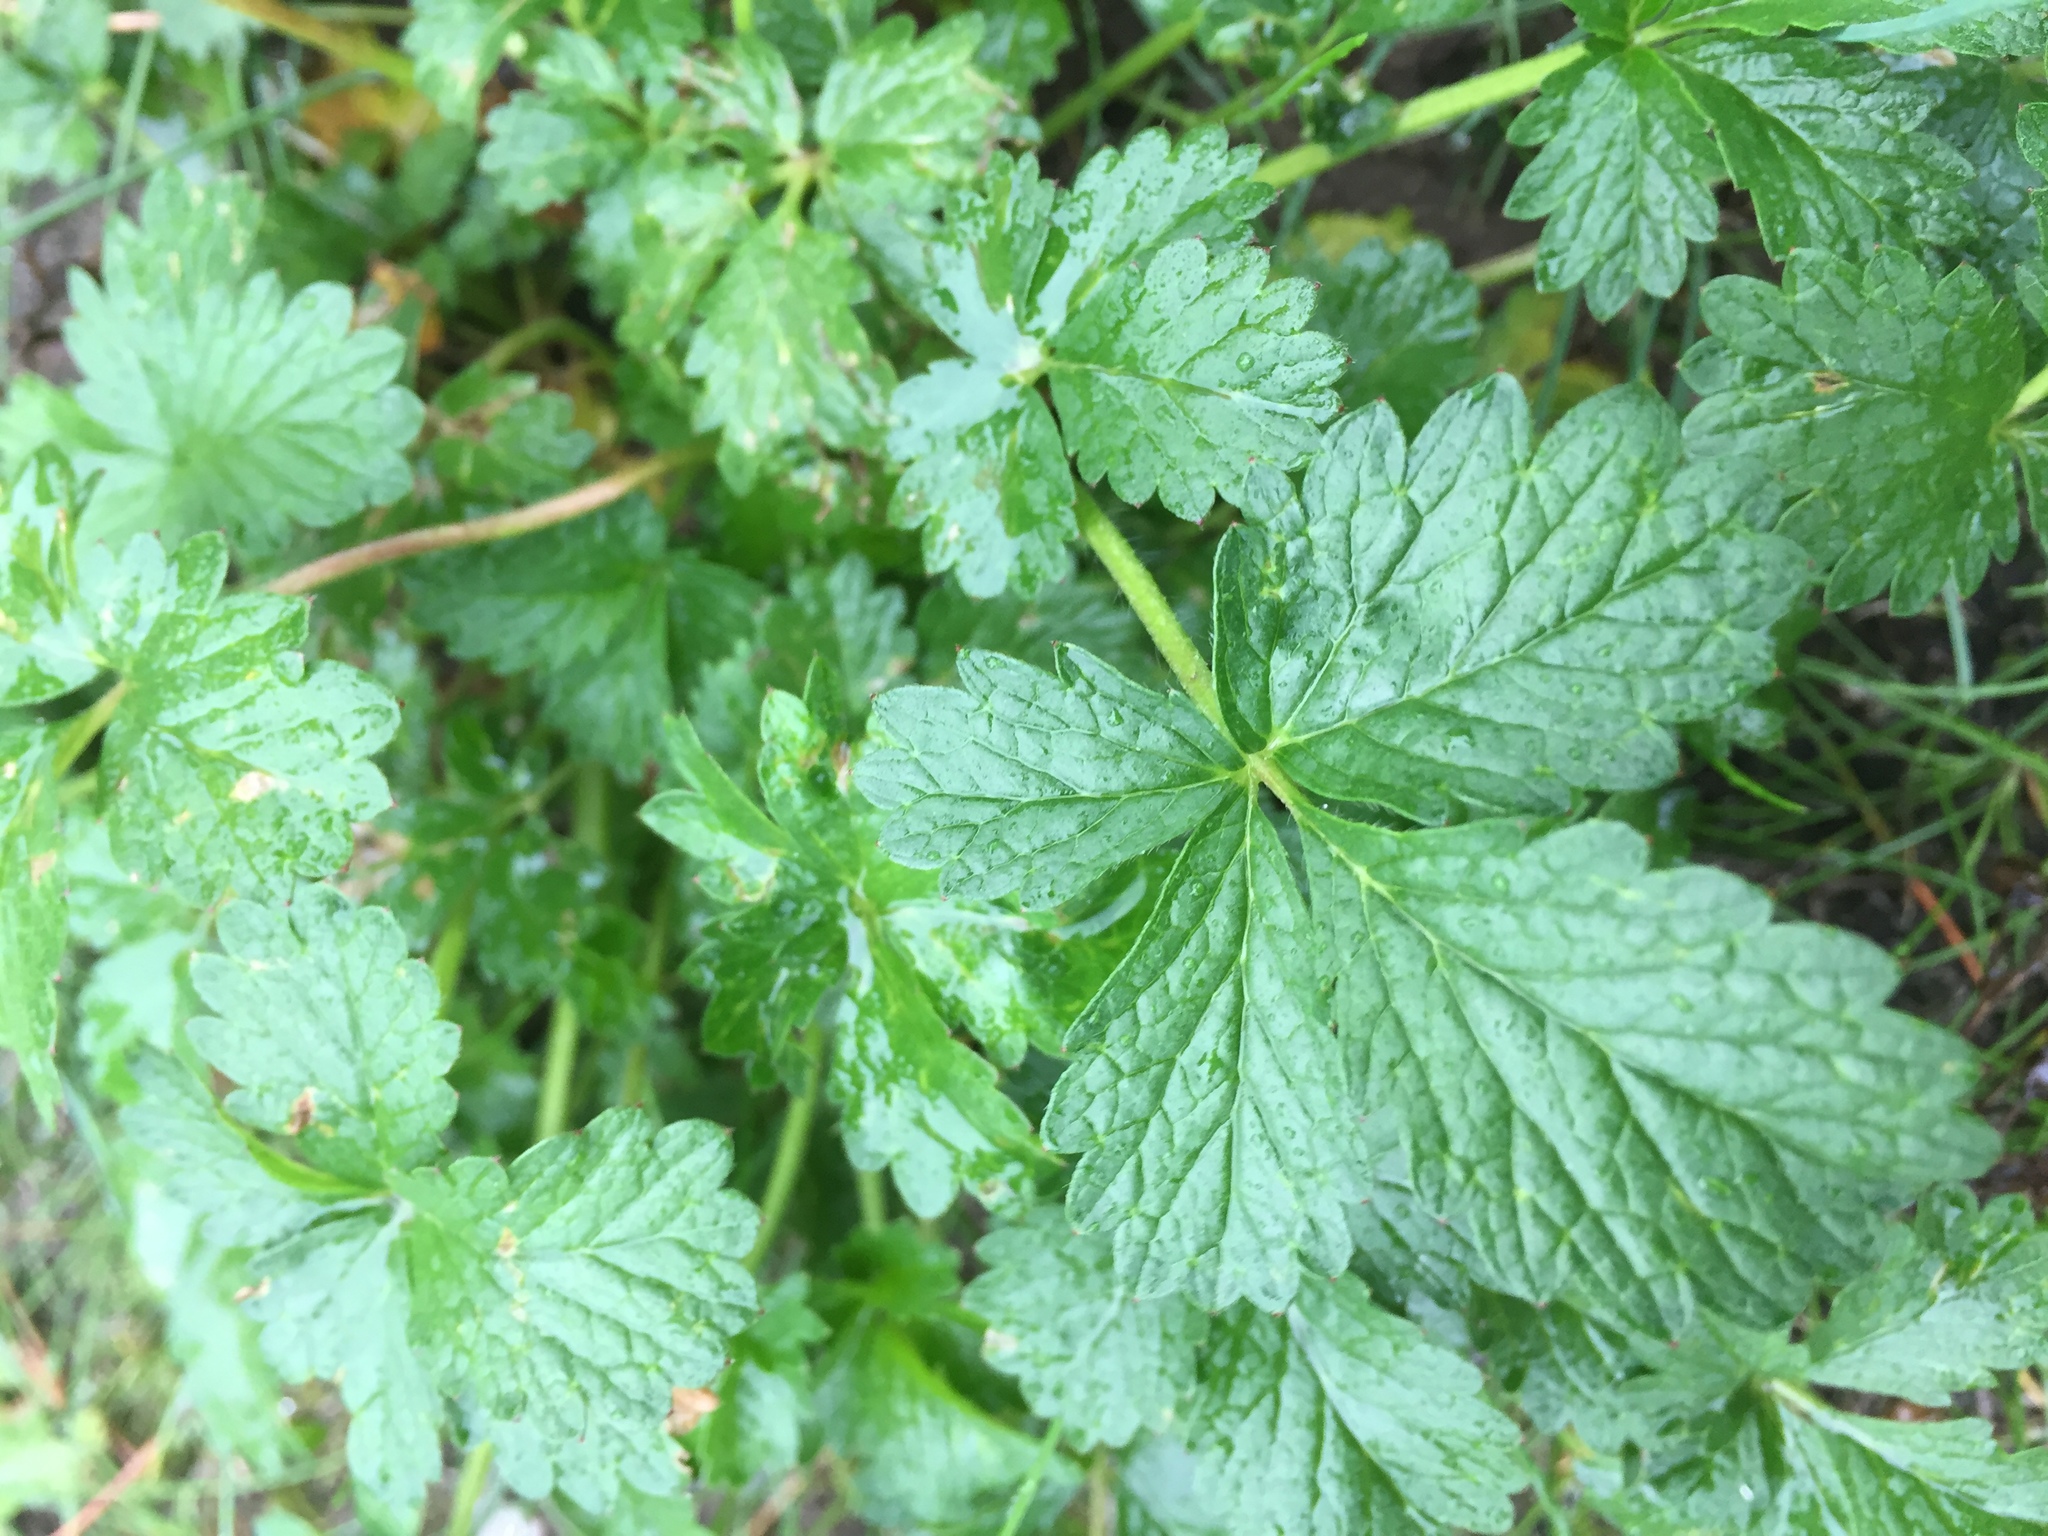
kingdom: Plantae
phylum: Tracheophyta
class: Magnoliopsida
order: Rosales
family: Rosaceae
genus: Potentilla
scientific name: Potentilla intermedia
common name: Downy cinquefoil
